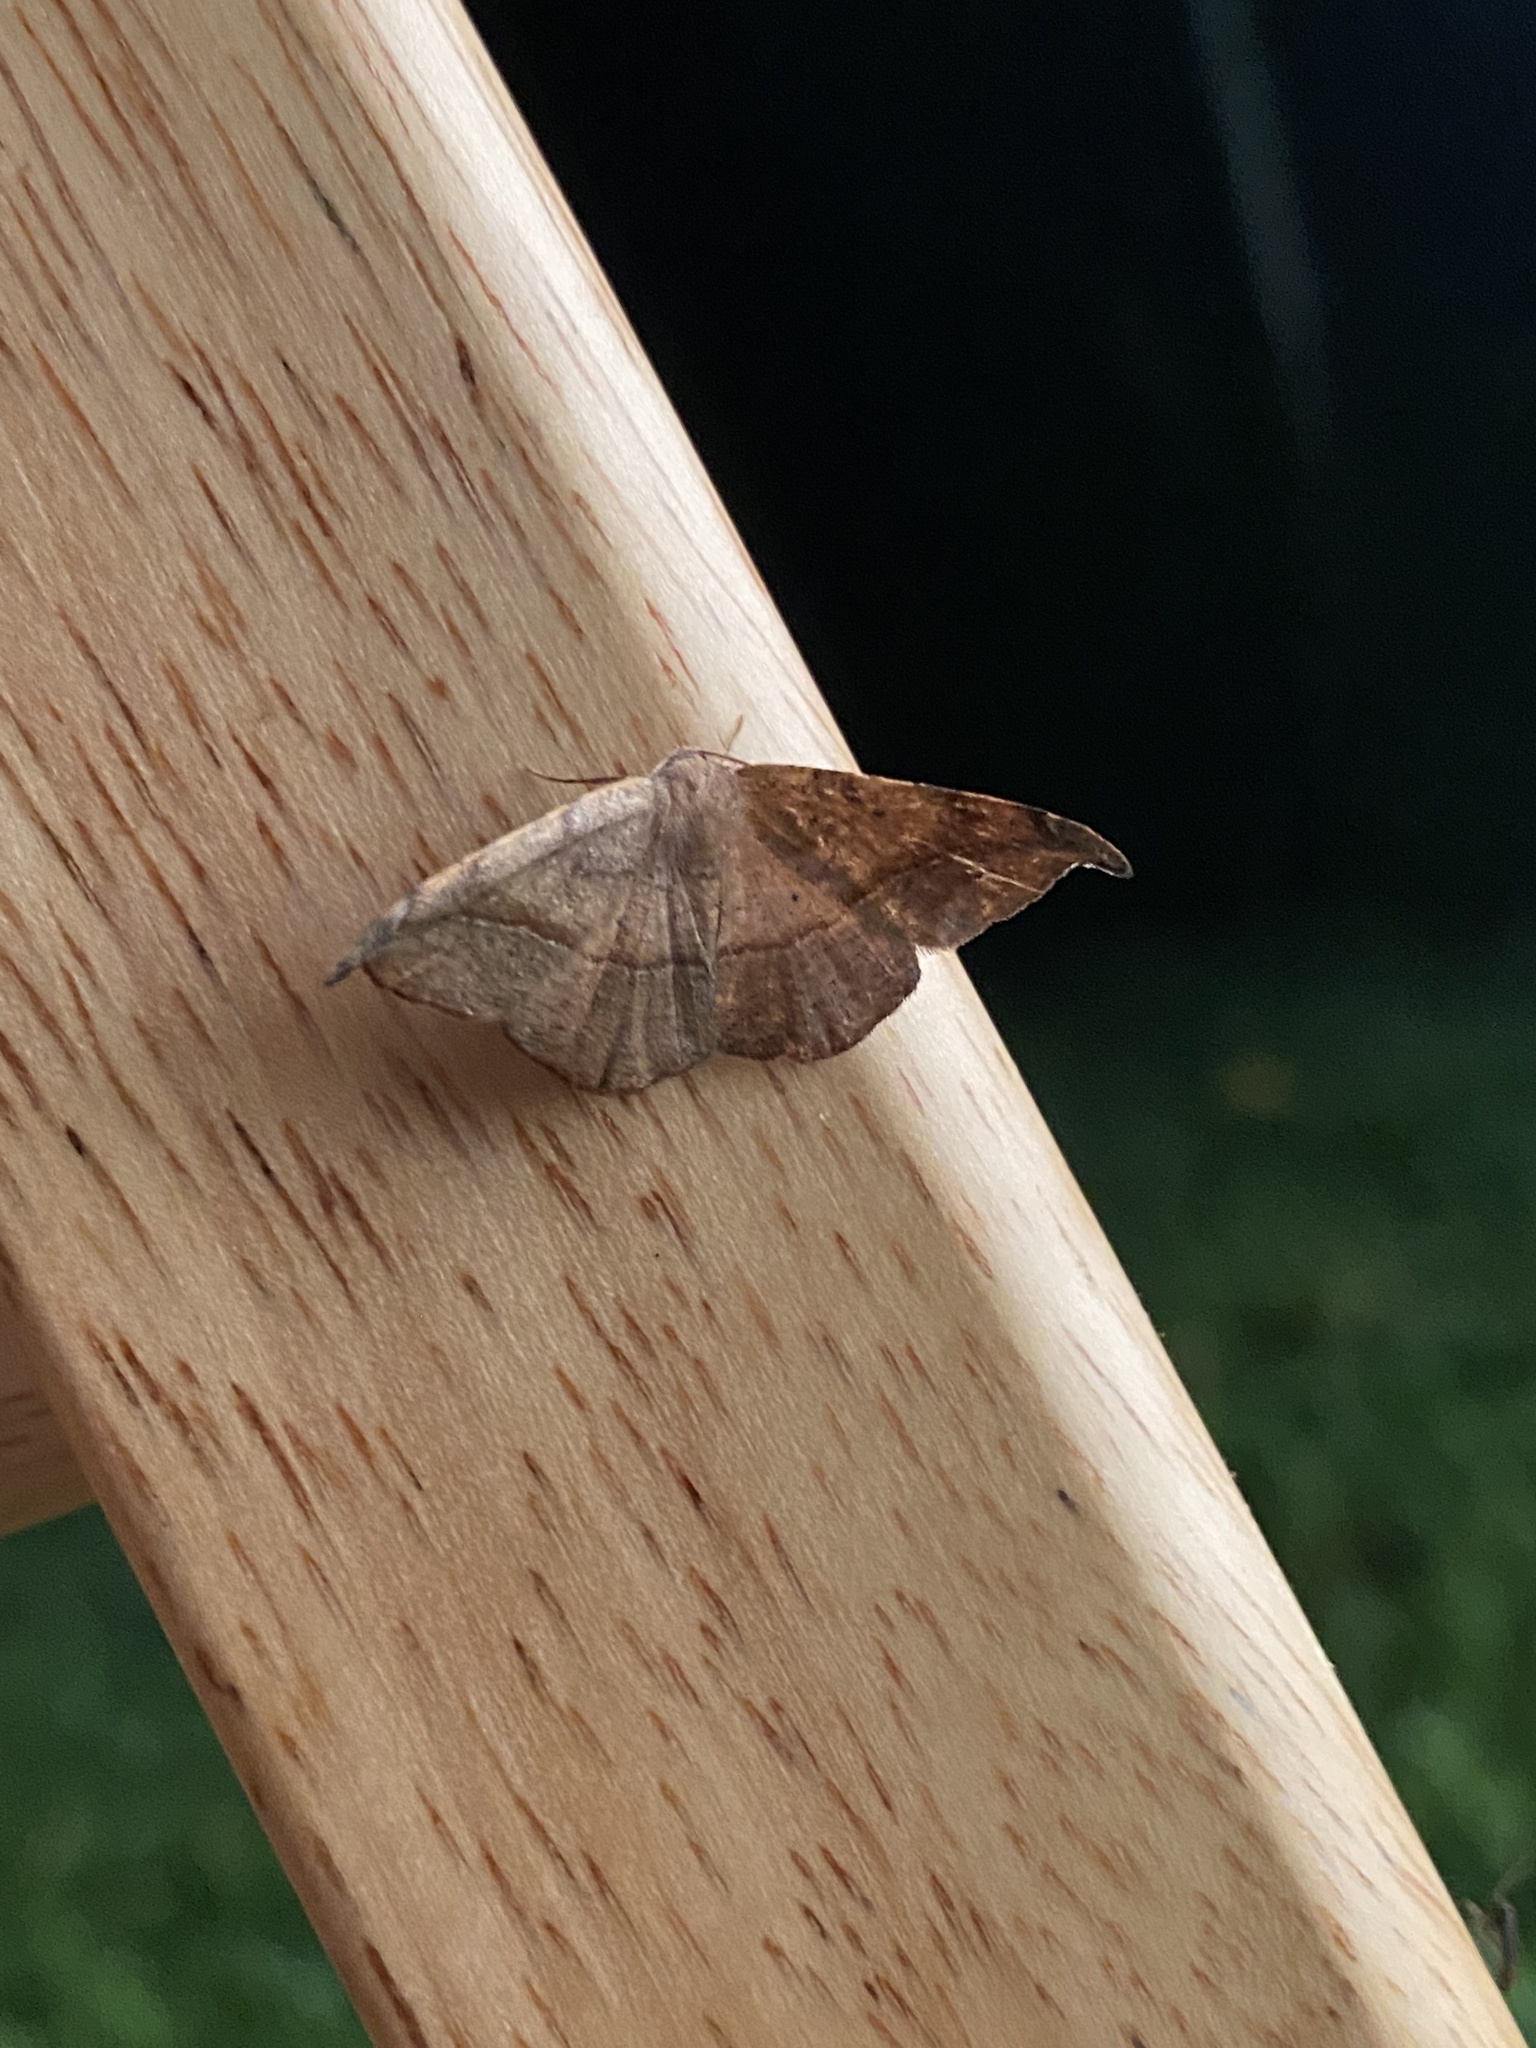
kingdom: Animalia
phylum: Arthropoda
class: Insecta
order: Lepidoptera
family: Geometridae
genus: Patalene
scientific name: Patalene olyzonaria
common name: Juniper geometer moth
